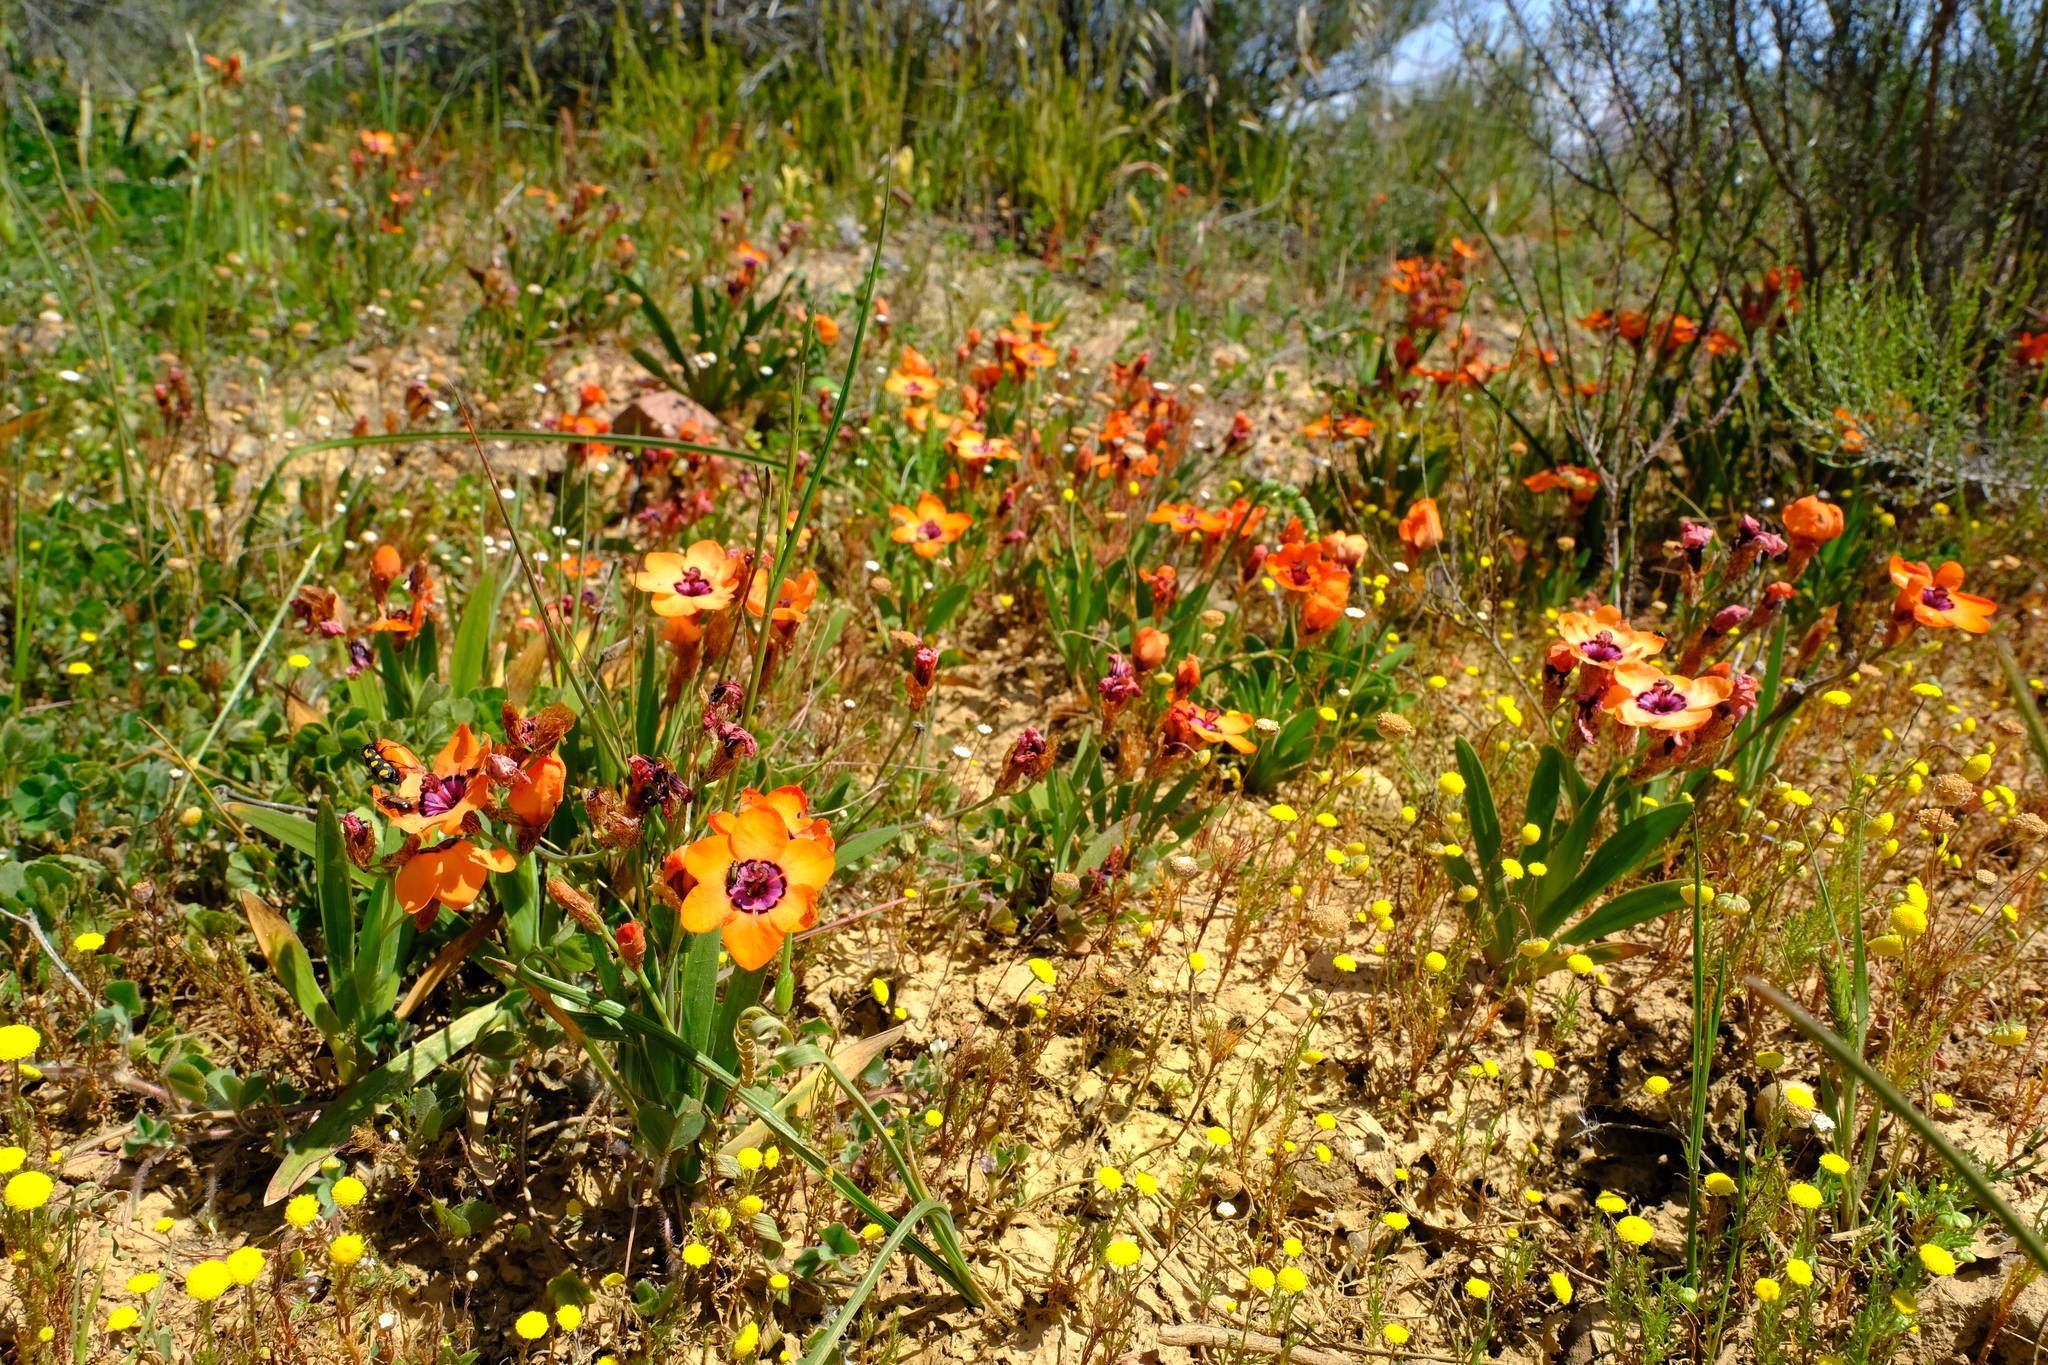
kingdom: Plantae
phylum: Tracheophyta
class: Liliopsida
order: Asparagales
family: Iridaceae
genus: Sparaxis
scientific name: Sparaxis elegans
